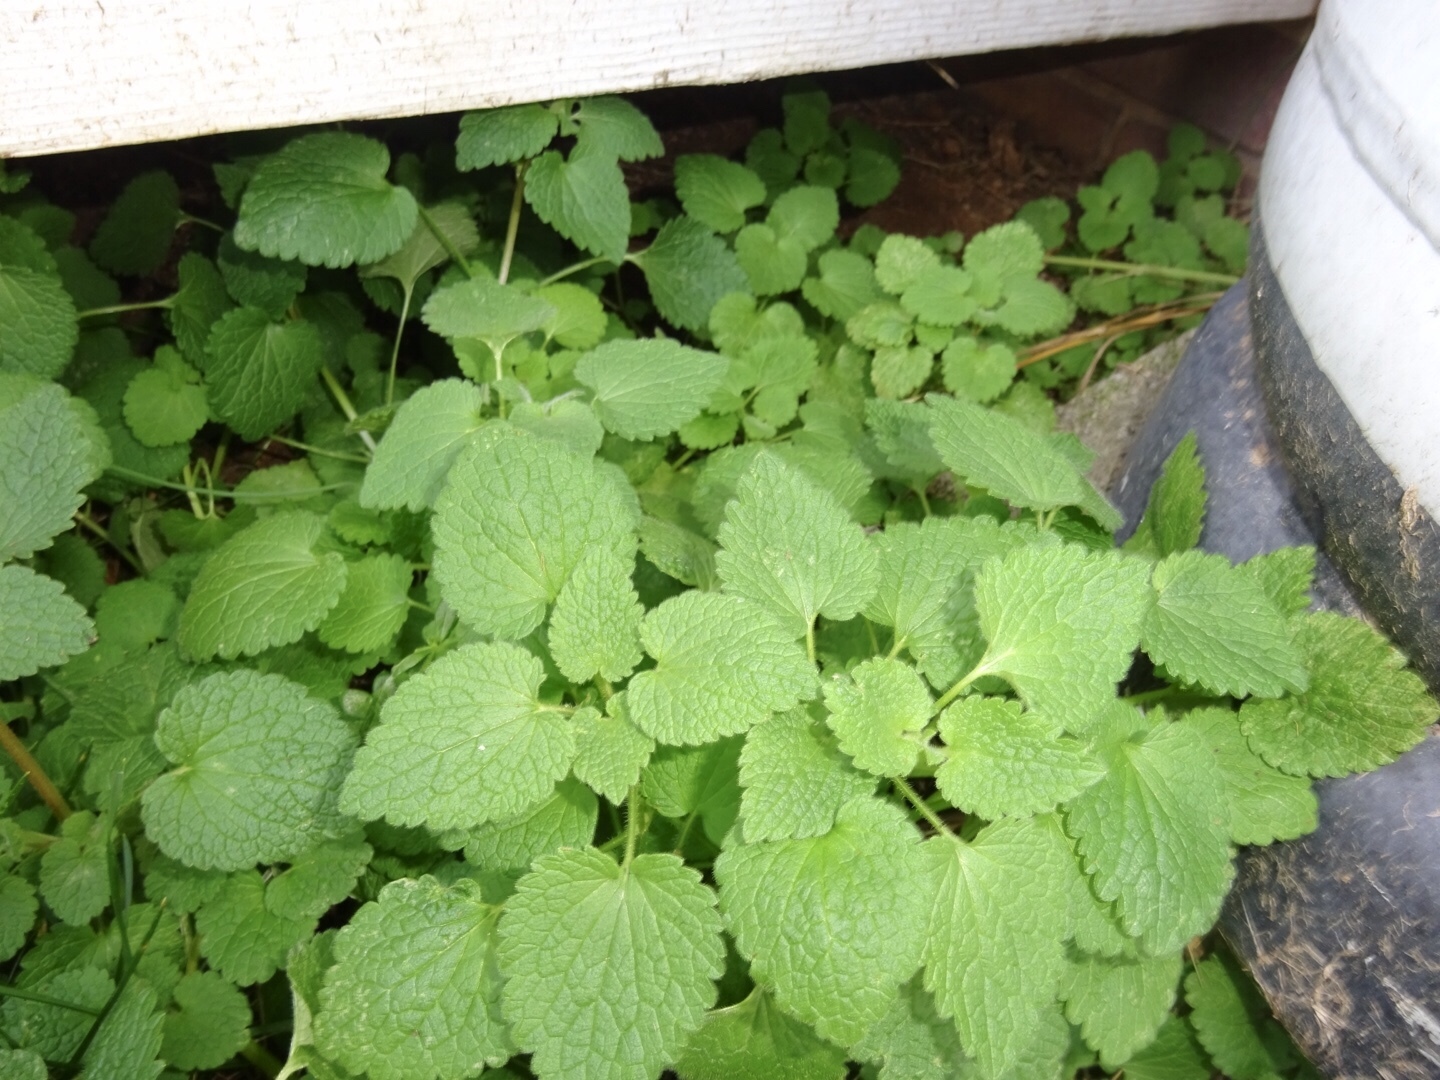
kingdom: Plantae
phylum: Tracheophyta
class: Magnoliopsida
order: Lamiales
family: Lamiaceae
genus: Lamium
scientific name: Lamium purpureum
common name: Red dead-nettle
